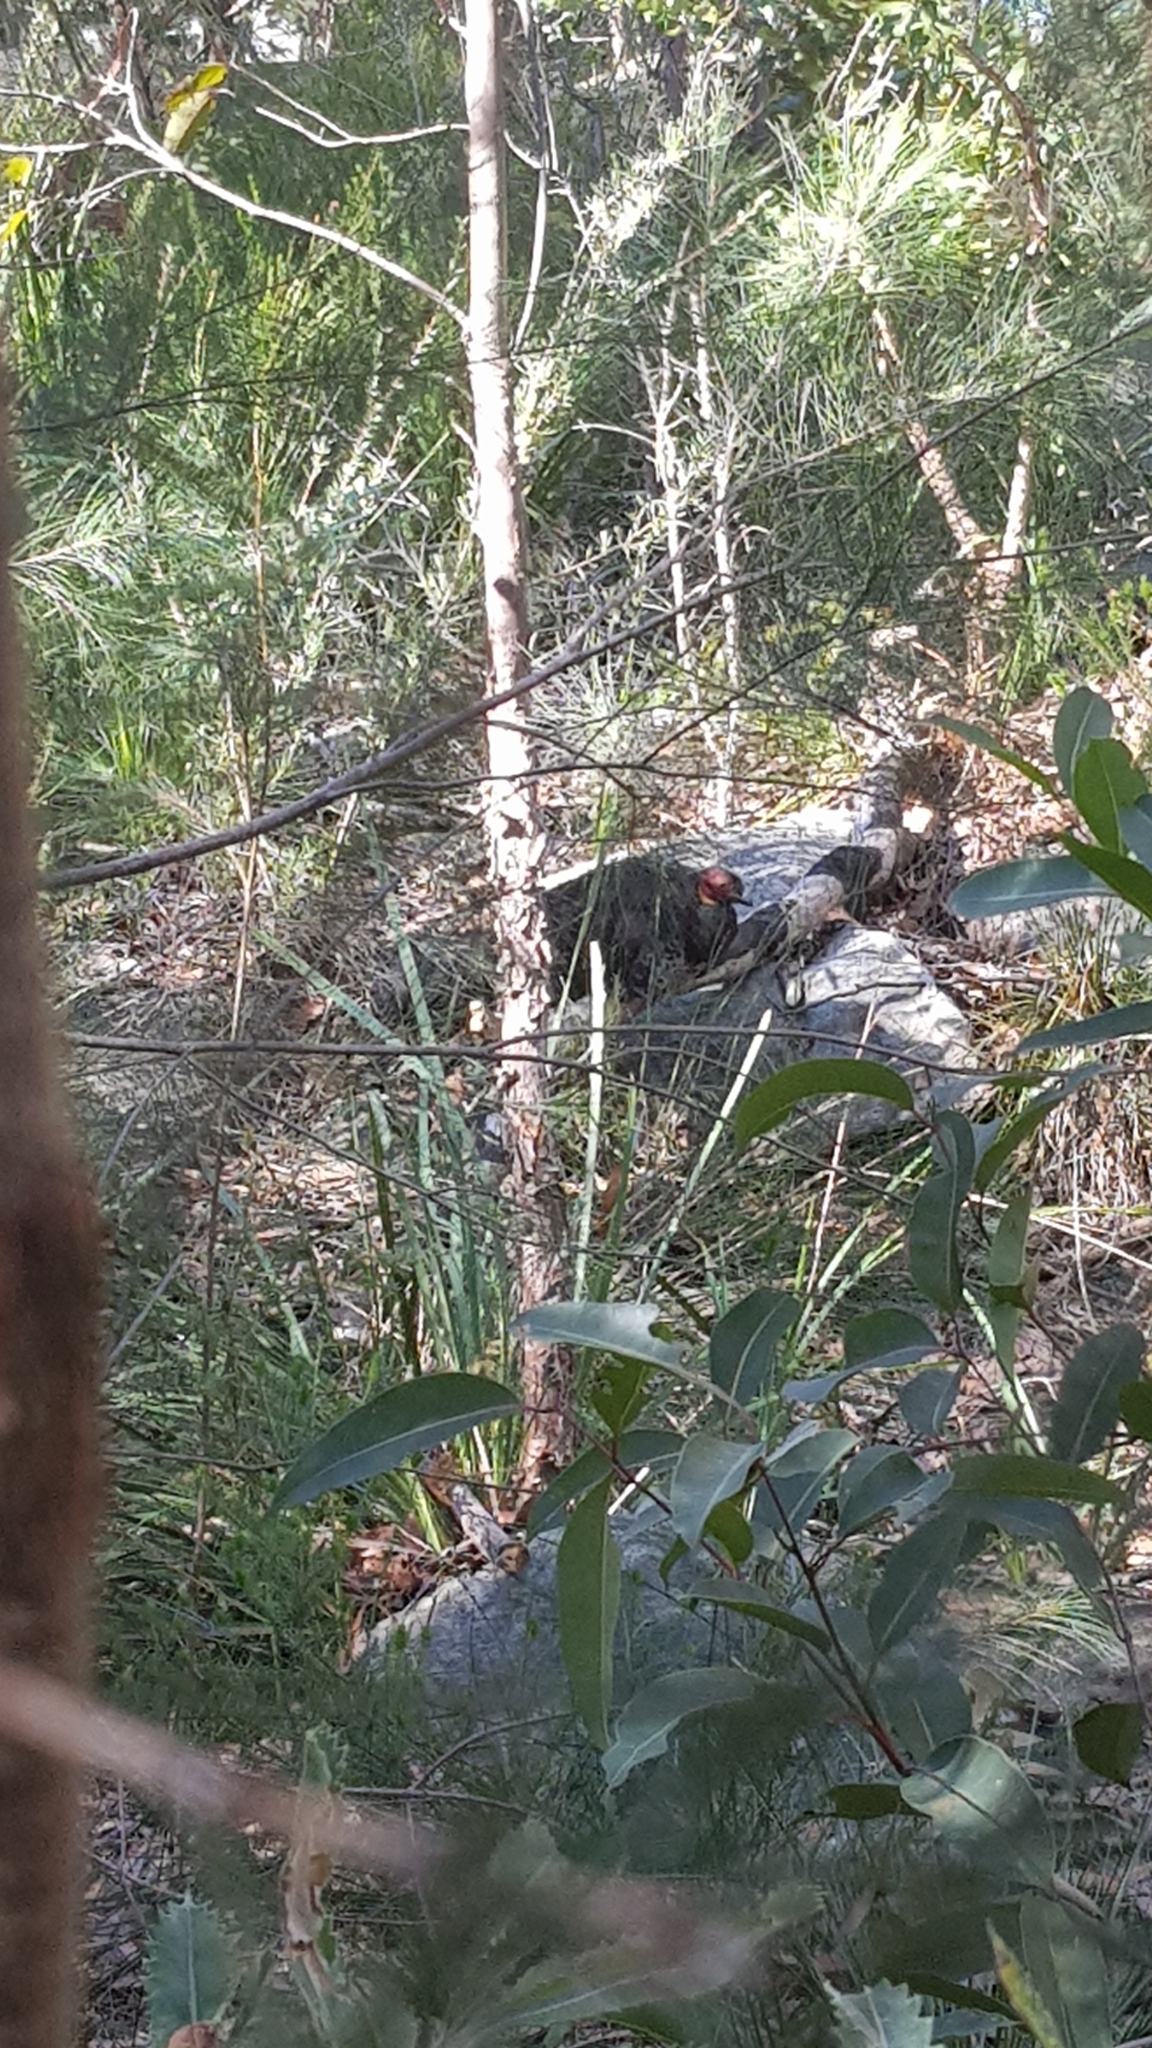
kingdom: Animalia
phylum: Chordata
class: Aves
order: Galliformes
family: Megapodiidae
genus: Alectura
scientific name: Alectura lathami
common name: Australian brushturkey
